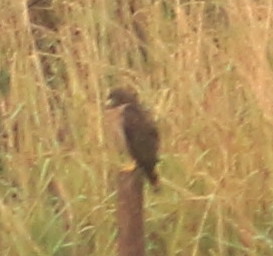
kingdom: Animalia
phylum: Chordata
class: Aves
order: Accipitriformes
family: Accipitridae
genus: Rupornis
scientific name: Rupornis magnirostris
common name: Roadside hawk
